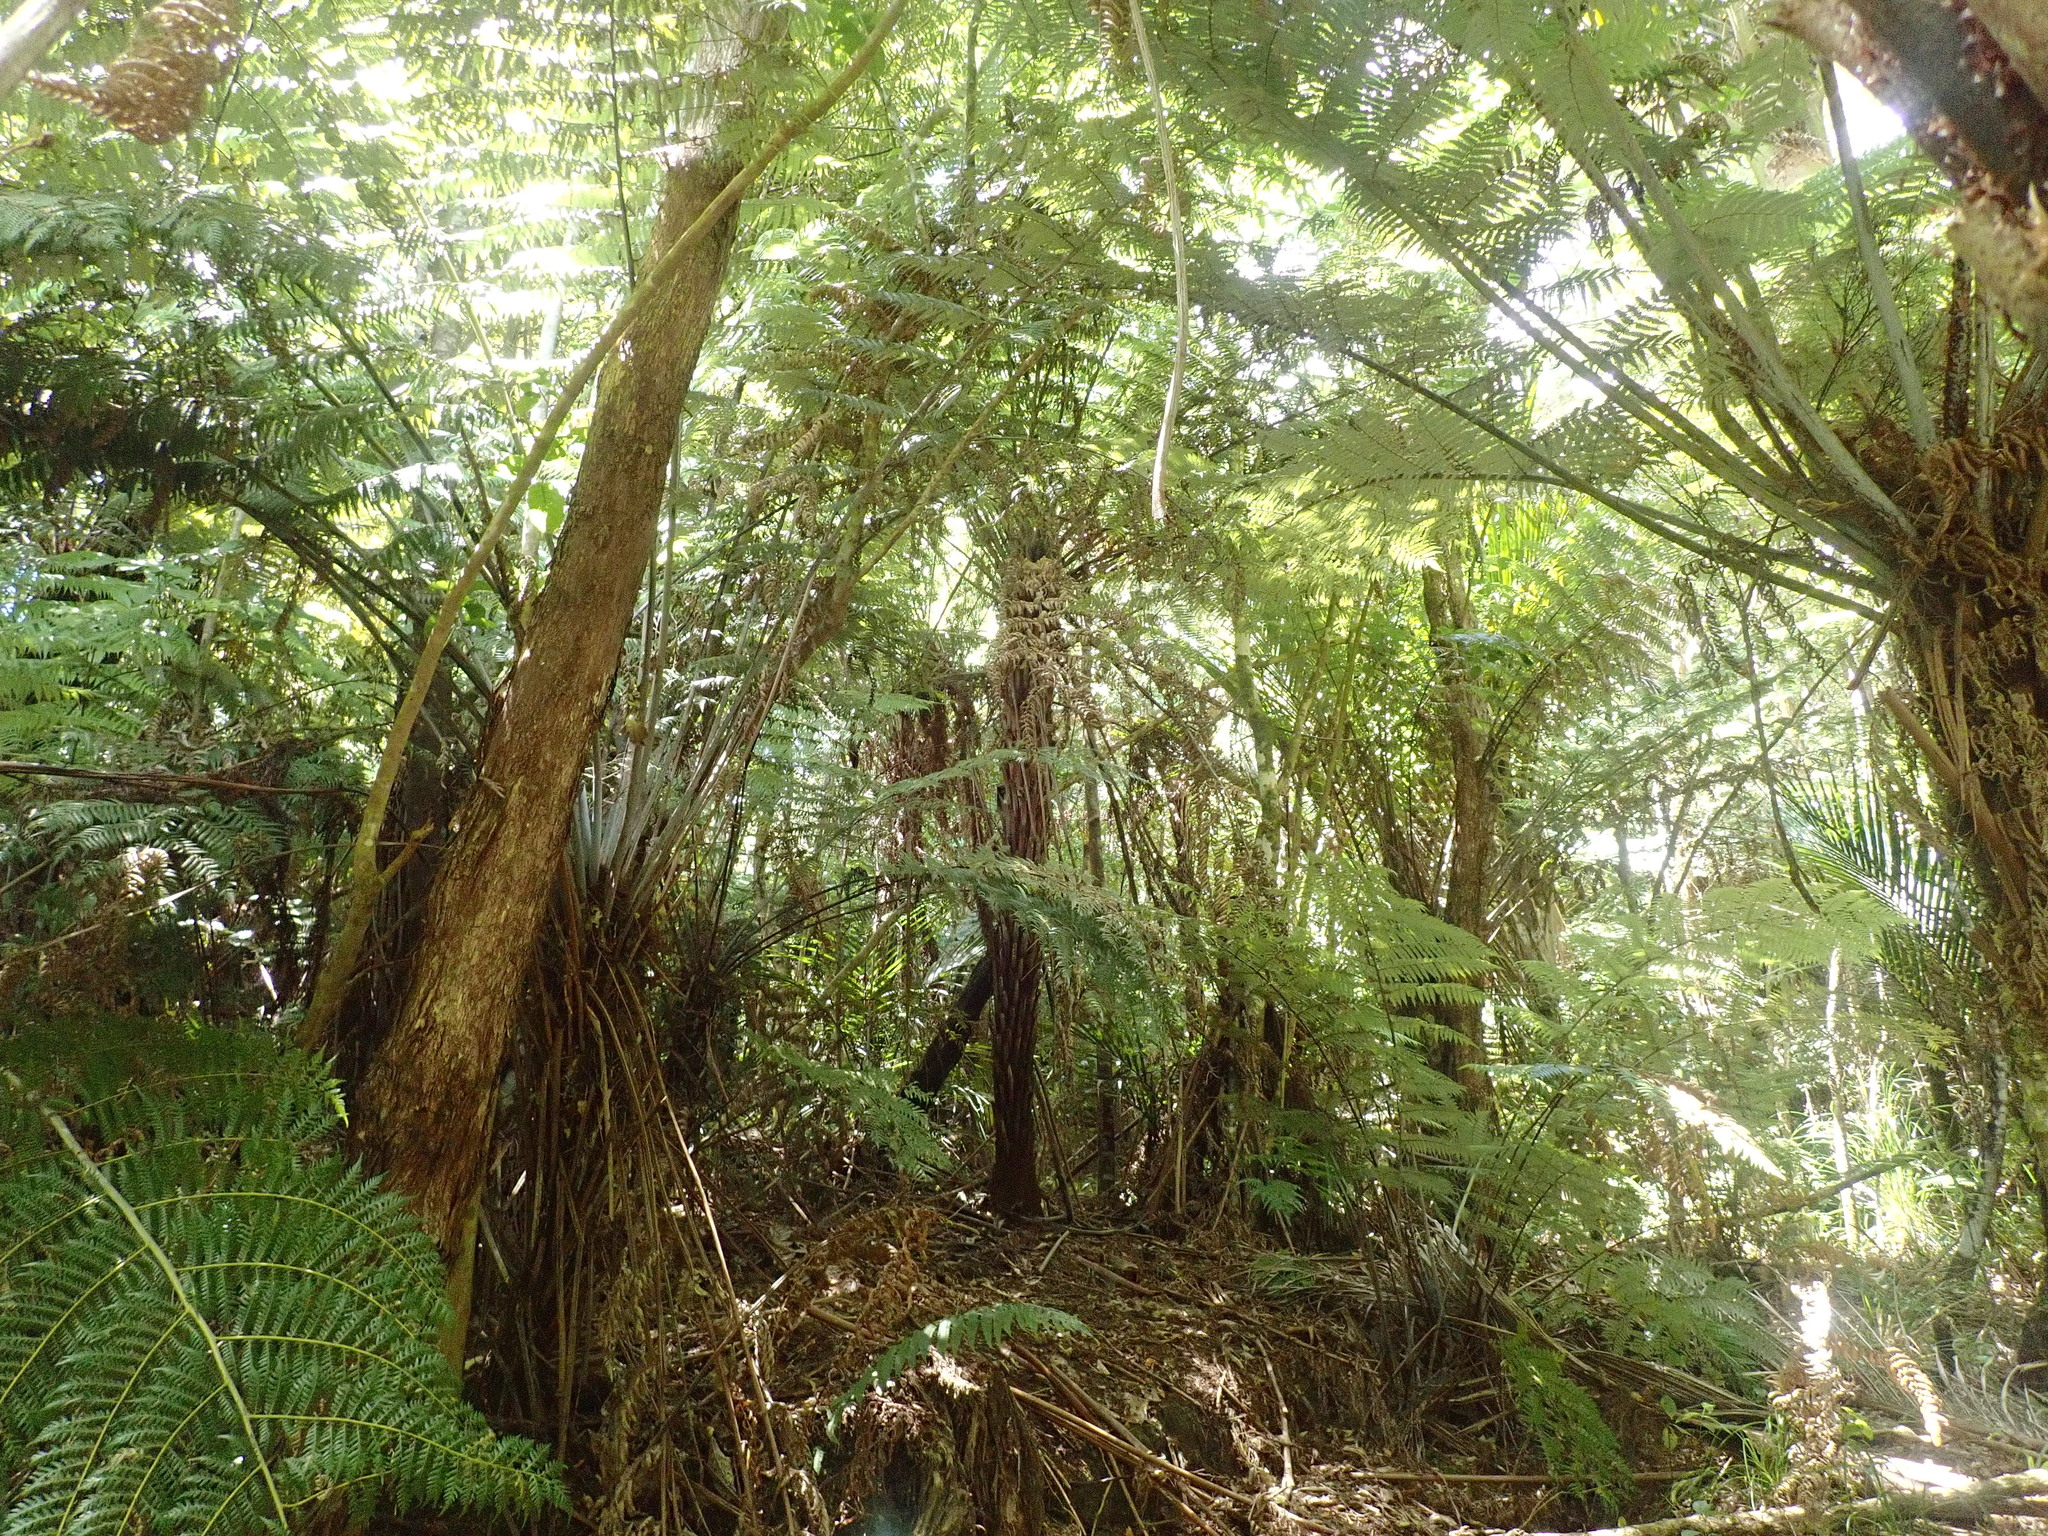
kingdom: Plantae
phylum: Tracheophyta
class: Polypodiopsida
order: Cyatheales
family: Cyatheaceae
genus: Alsophila
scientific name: Alsophila dealbata
